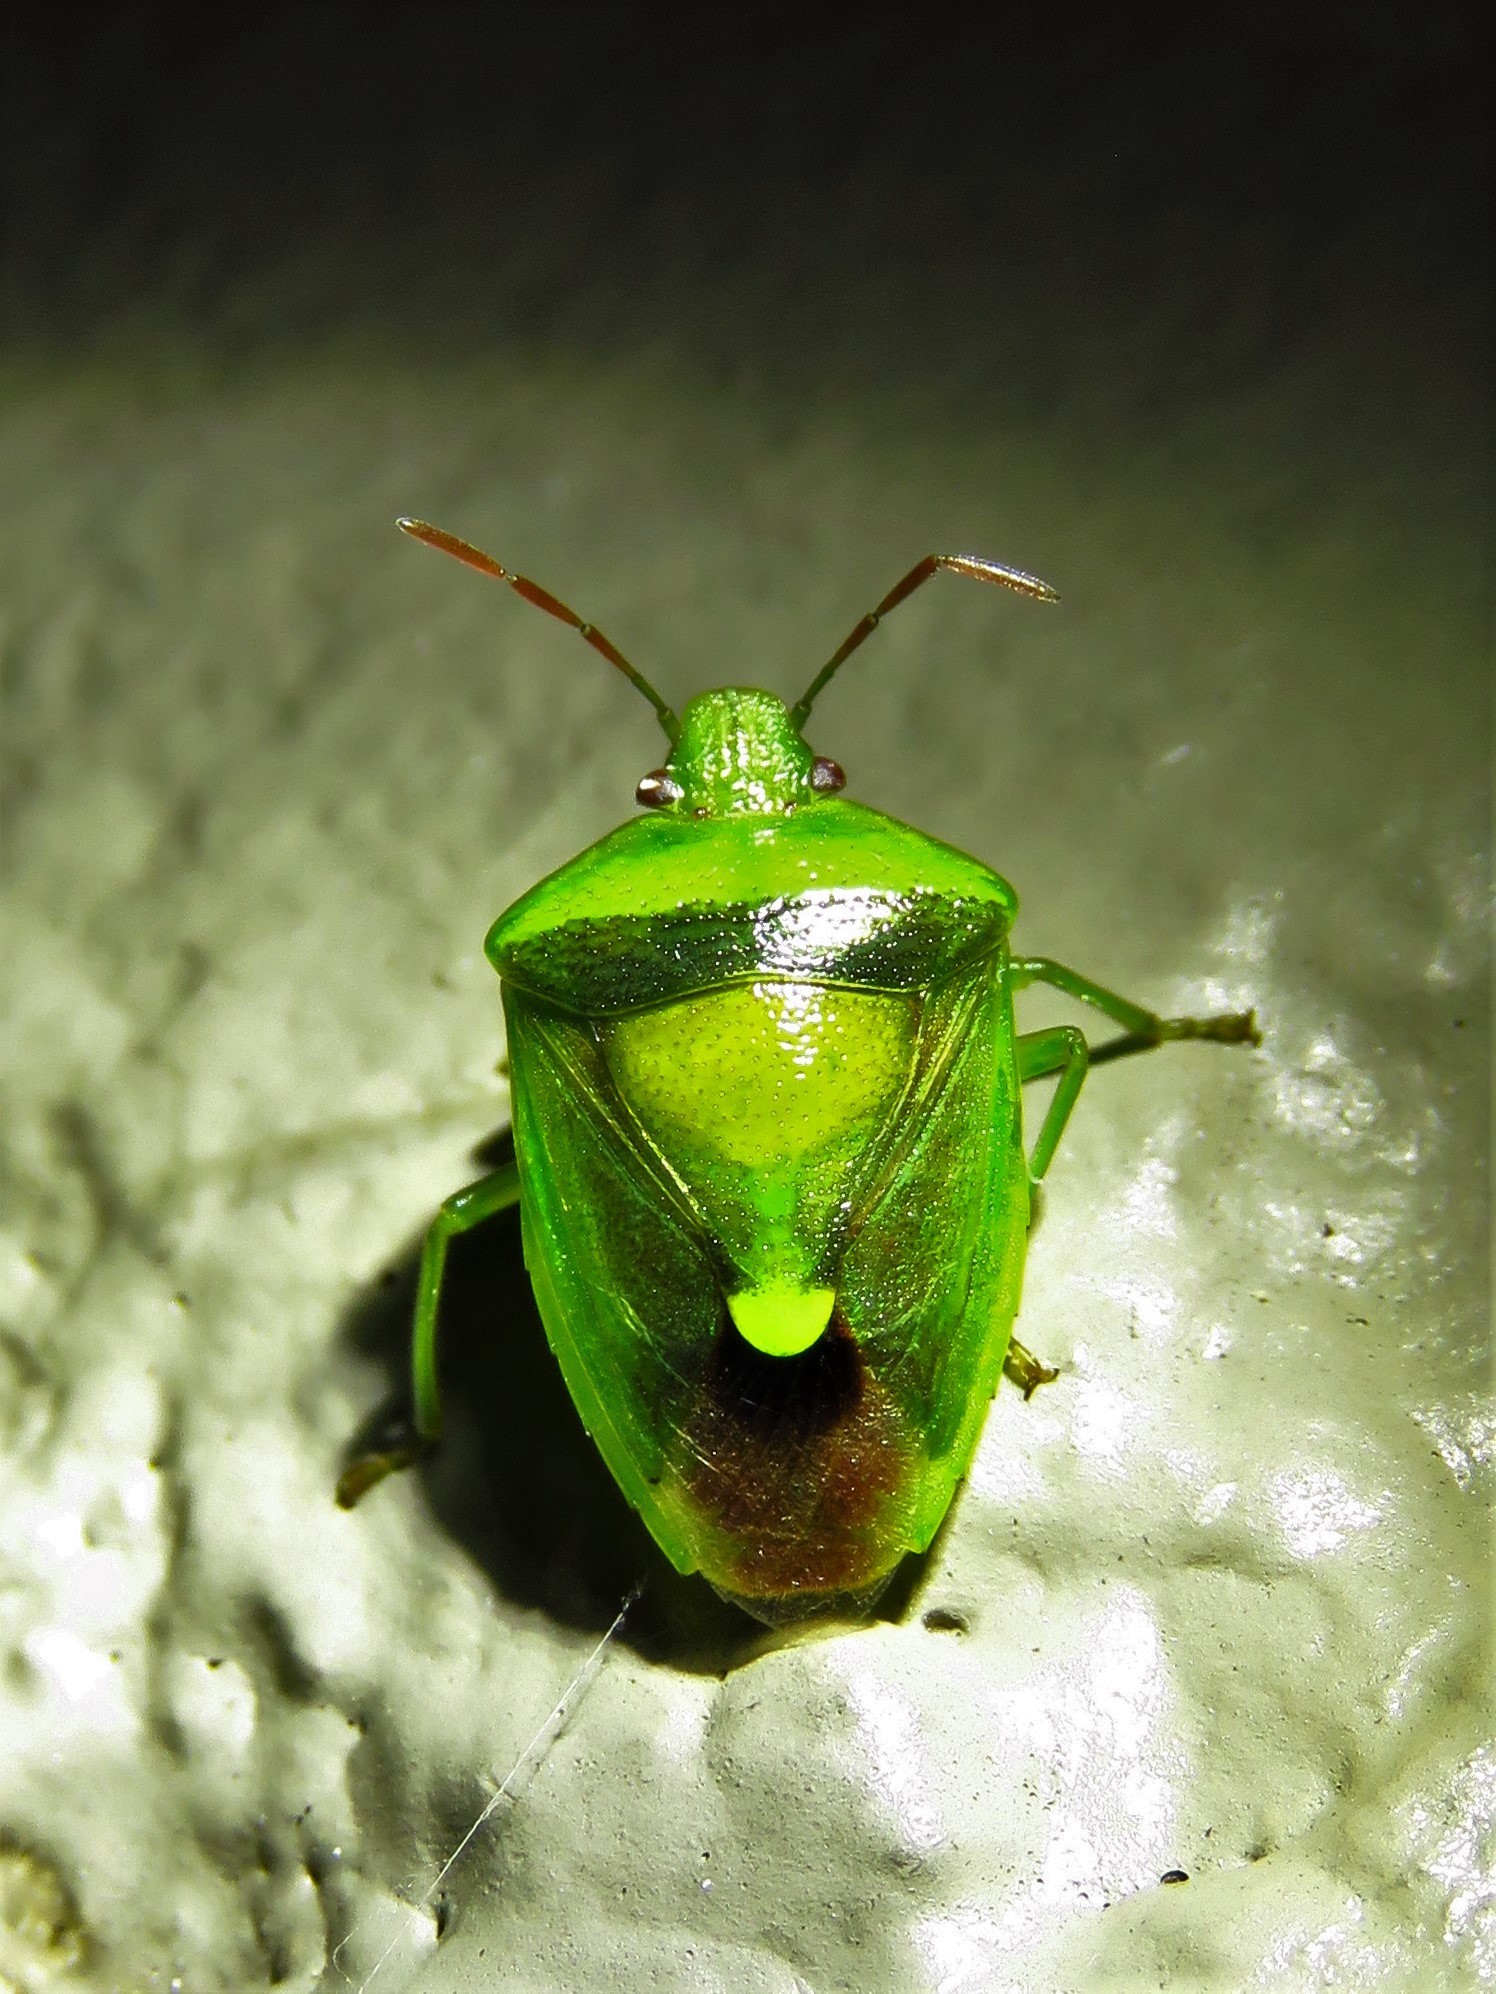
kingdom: Animalia
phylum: Arthropoda
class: Insecta
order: Hemiptera
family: Pentatomidae
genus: Banasa
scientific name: Banasa dimidiata
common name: Green burgundy stink bug
